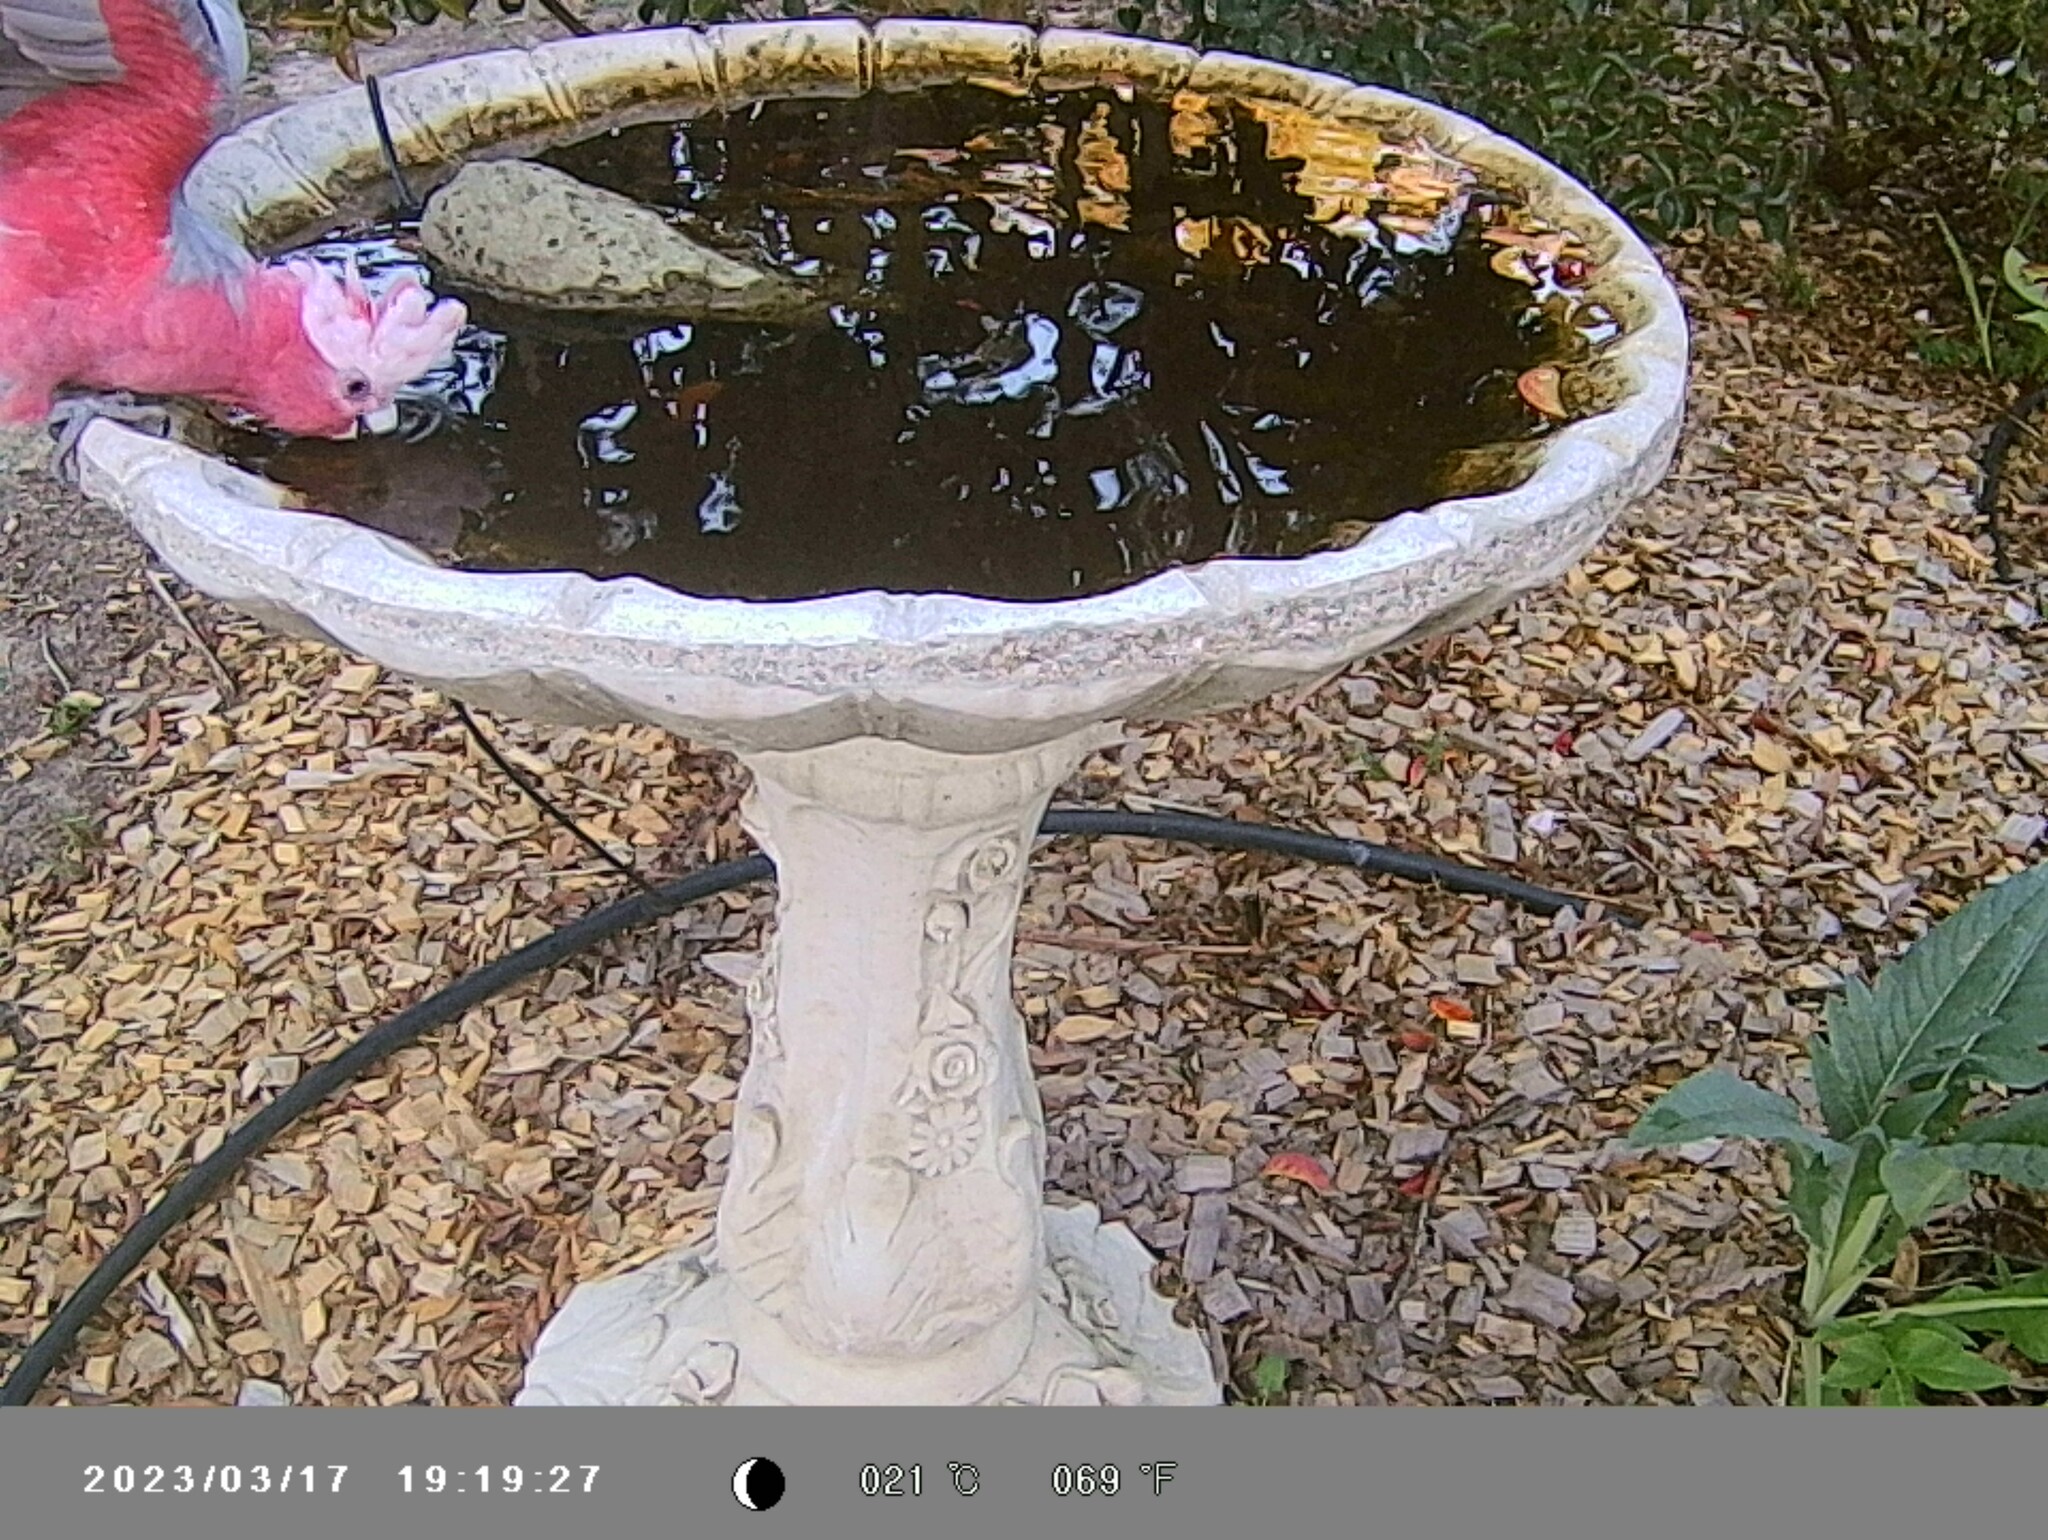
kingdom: Animalia
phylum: Chordata
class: Aves
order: Psittaciformes
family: Psittacidae
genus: Eolophus
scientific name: Eolophus roseicapilla
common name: Galah
